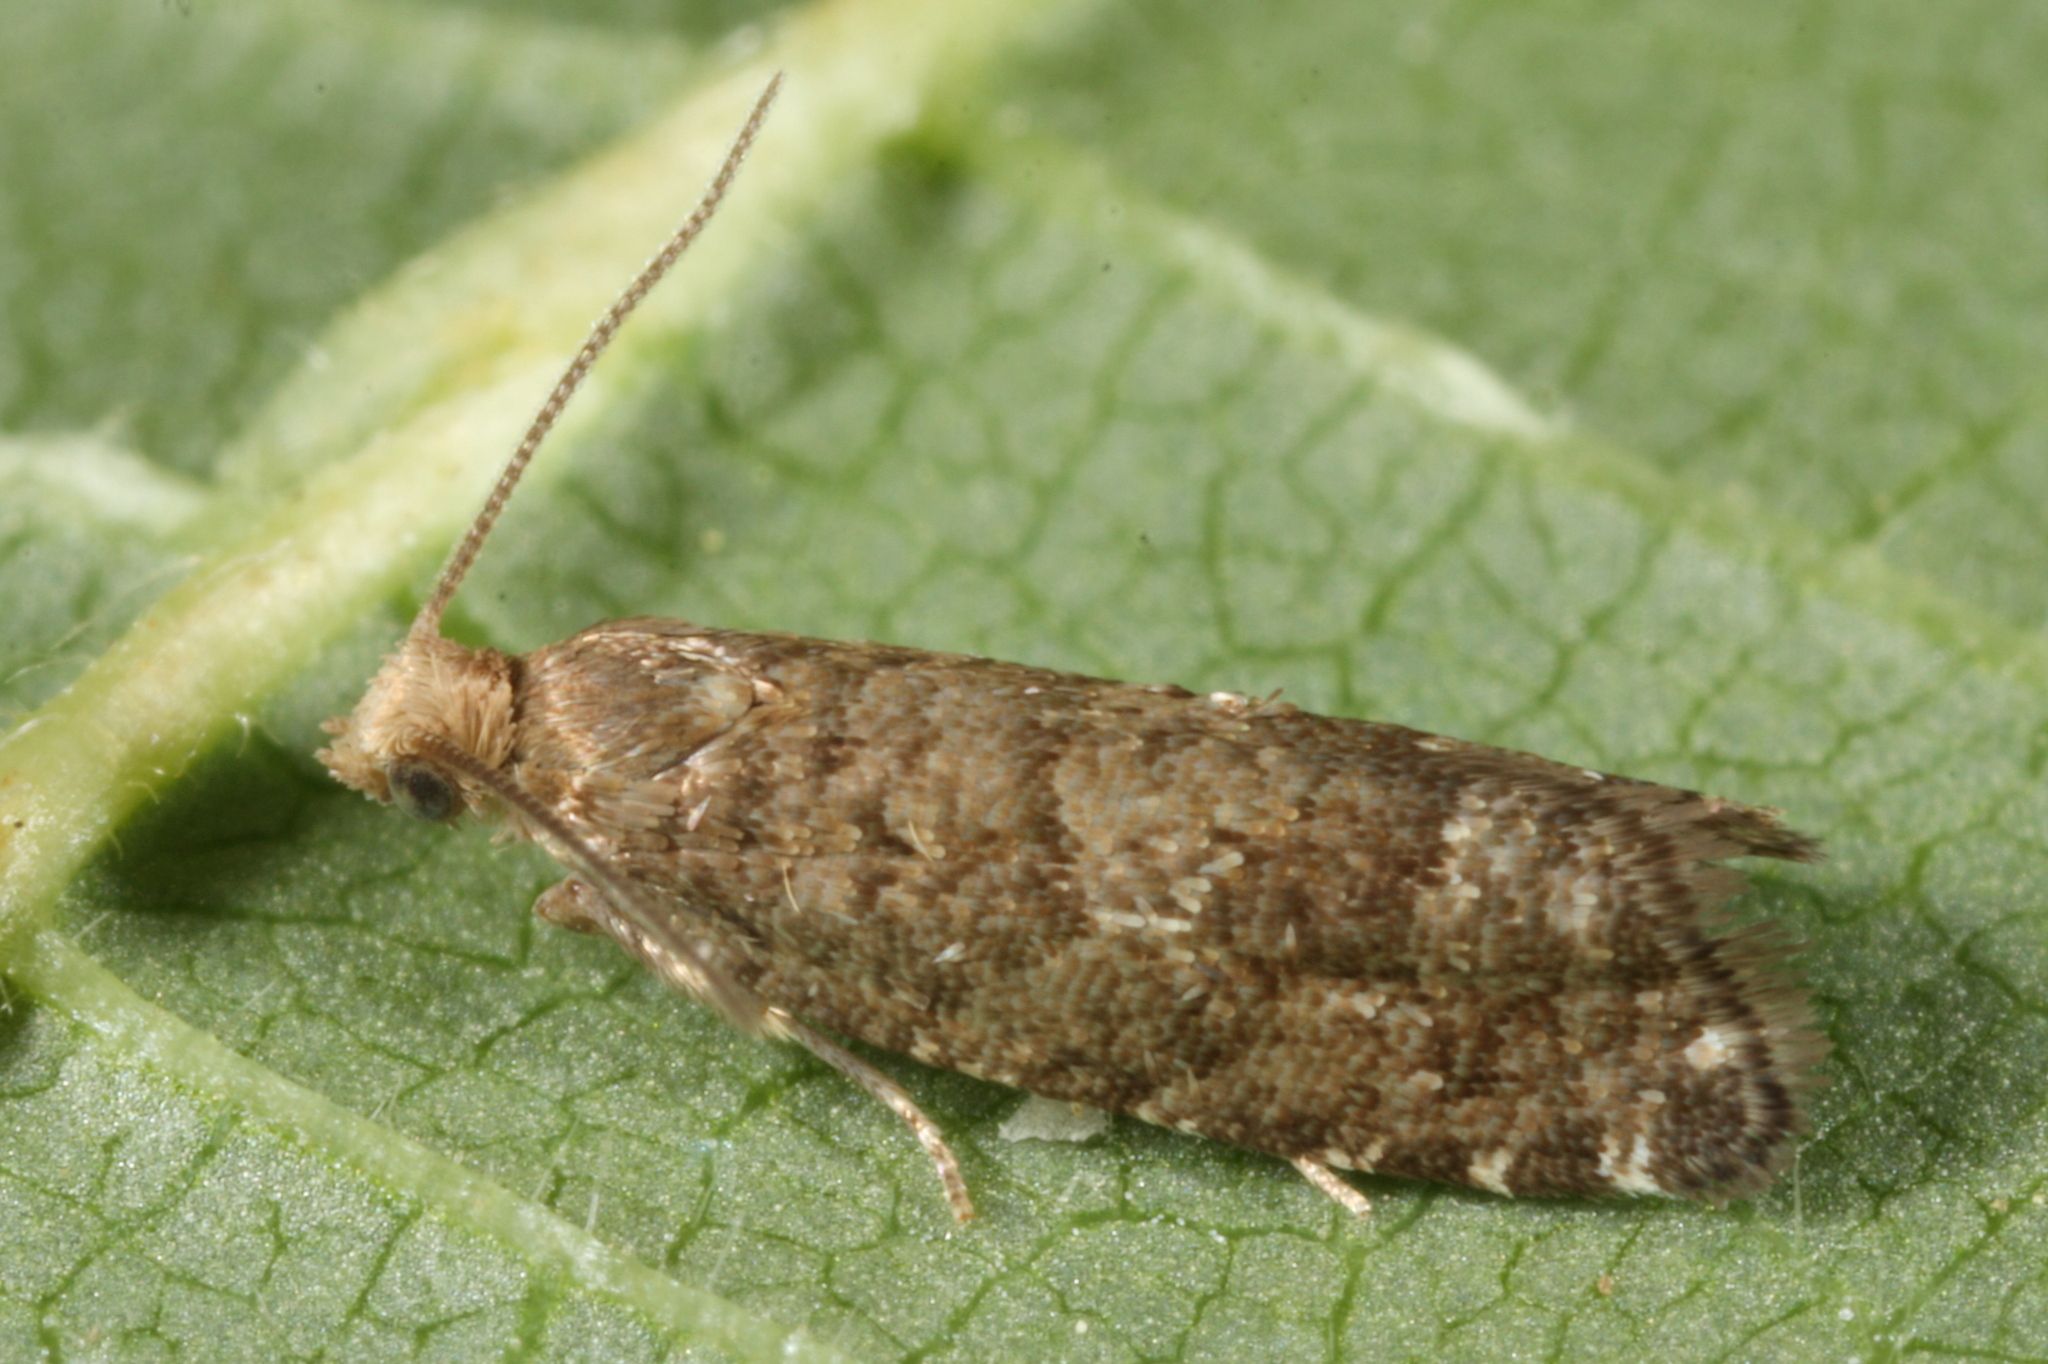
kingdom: Animalia
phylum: Arthropoda
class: Insecta
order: Lepidoptera
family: Tortricidae
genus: Epinotia
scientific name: Epinotia nanana
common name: Leaf roller
